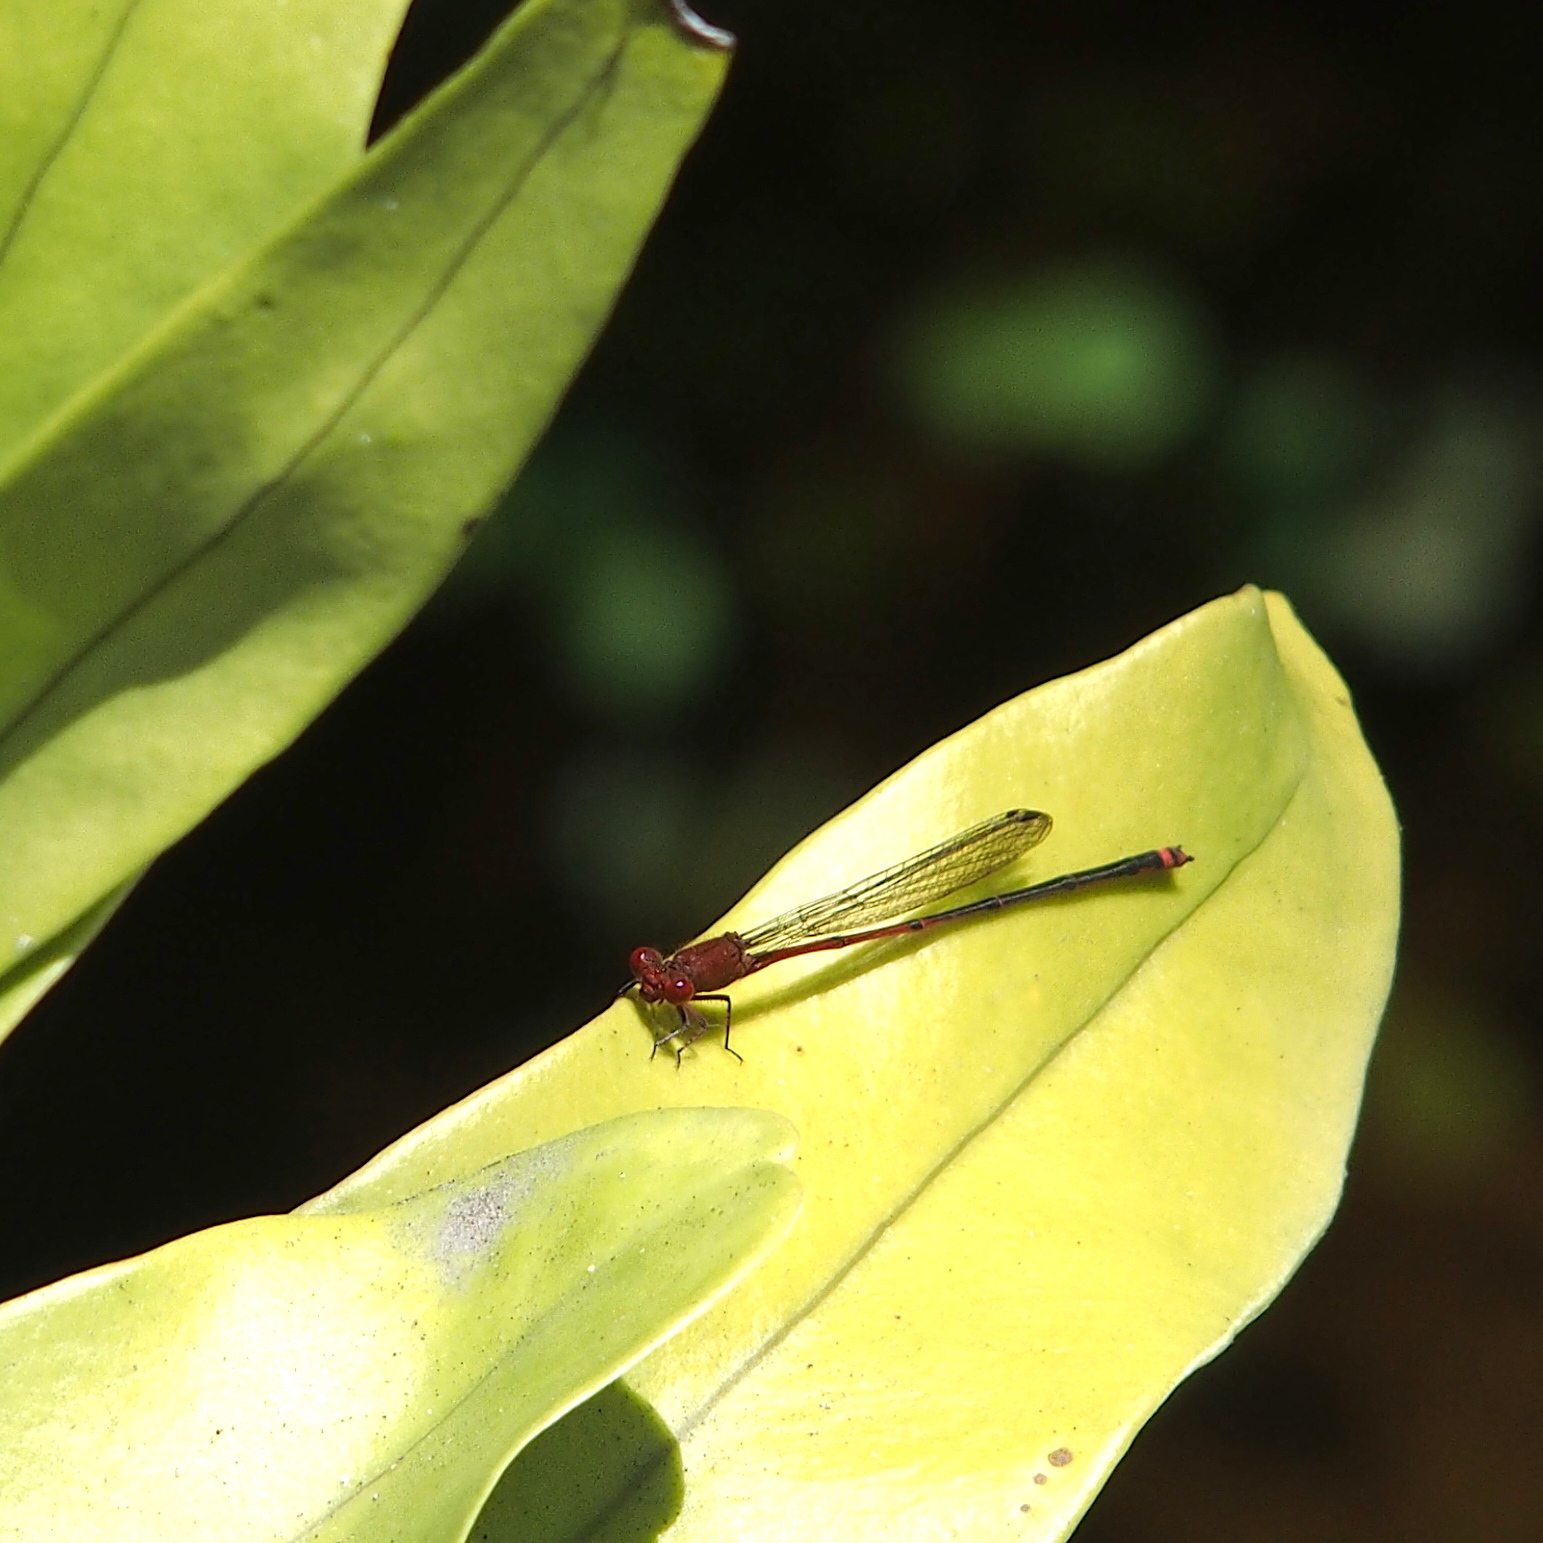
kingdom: Animalia
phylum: Arthropoda
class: Insecta
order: Odonata
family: Coenagrionidae
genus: Pseudagrion
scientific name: Pseudagrion pilidorsum
